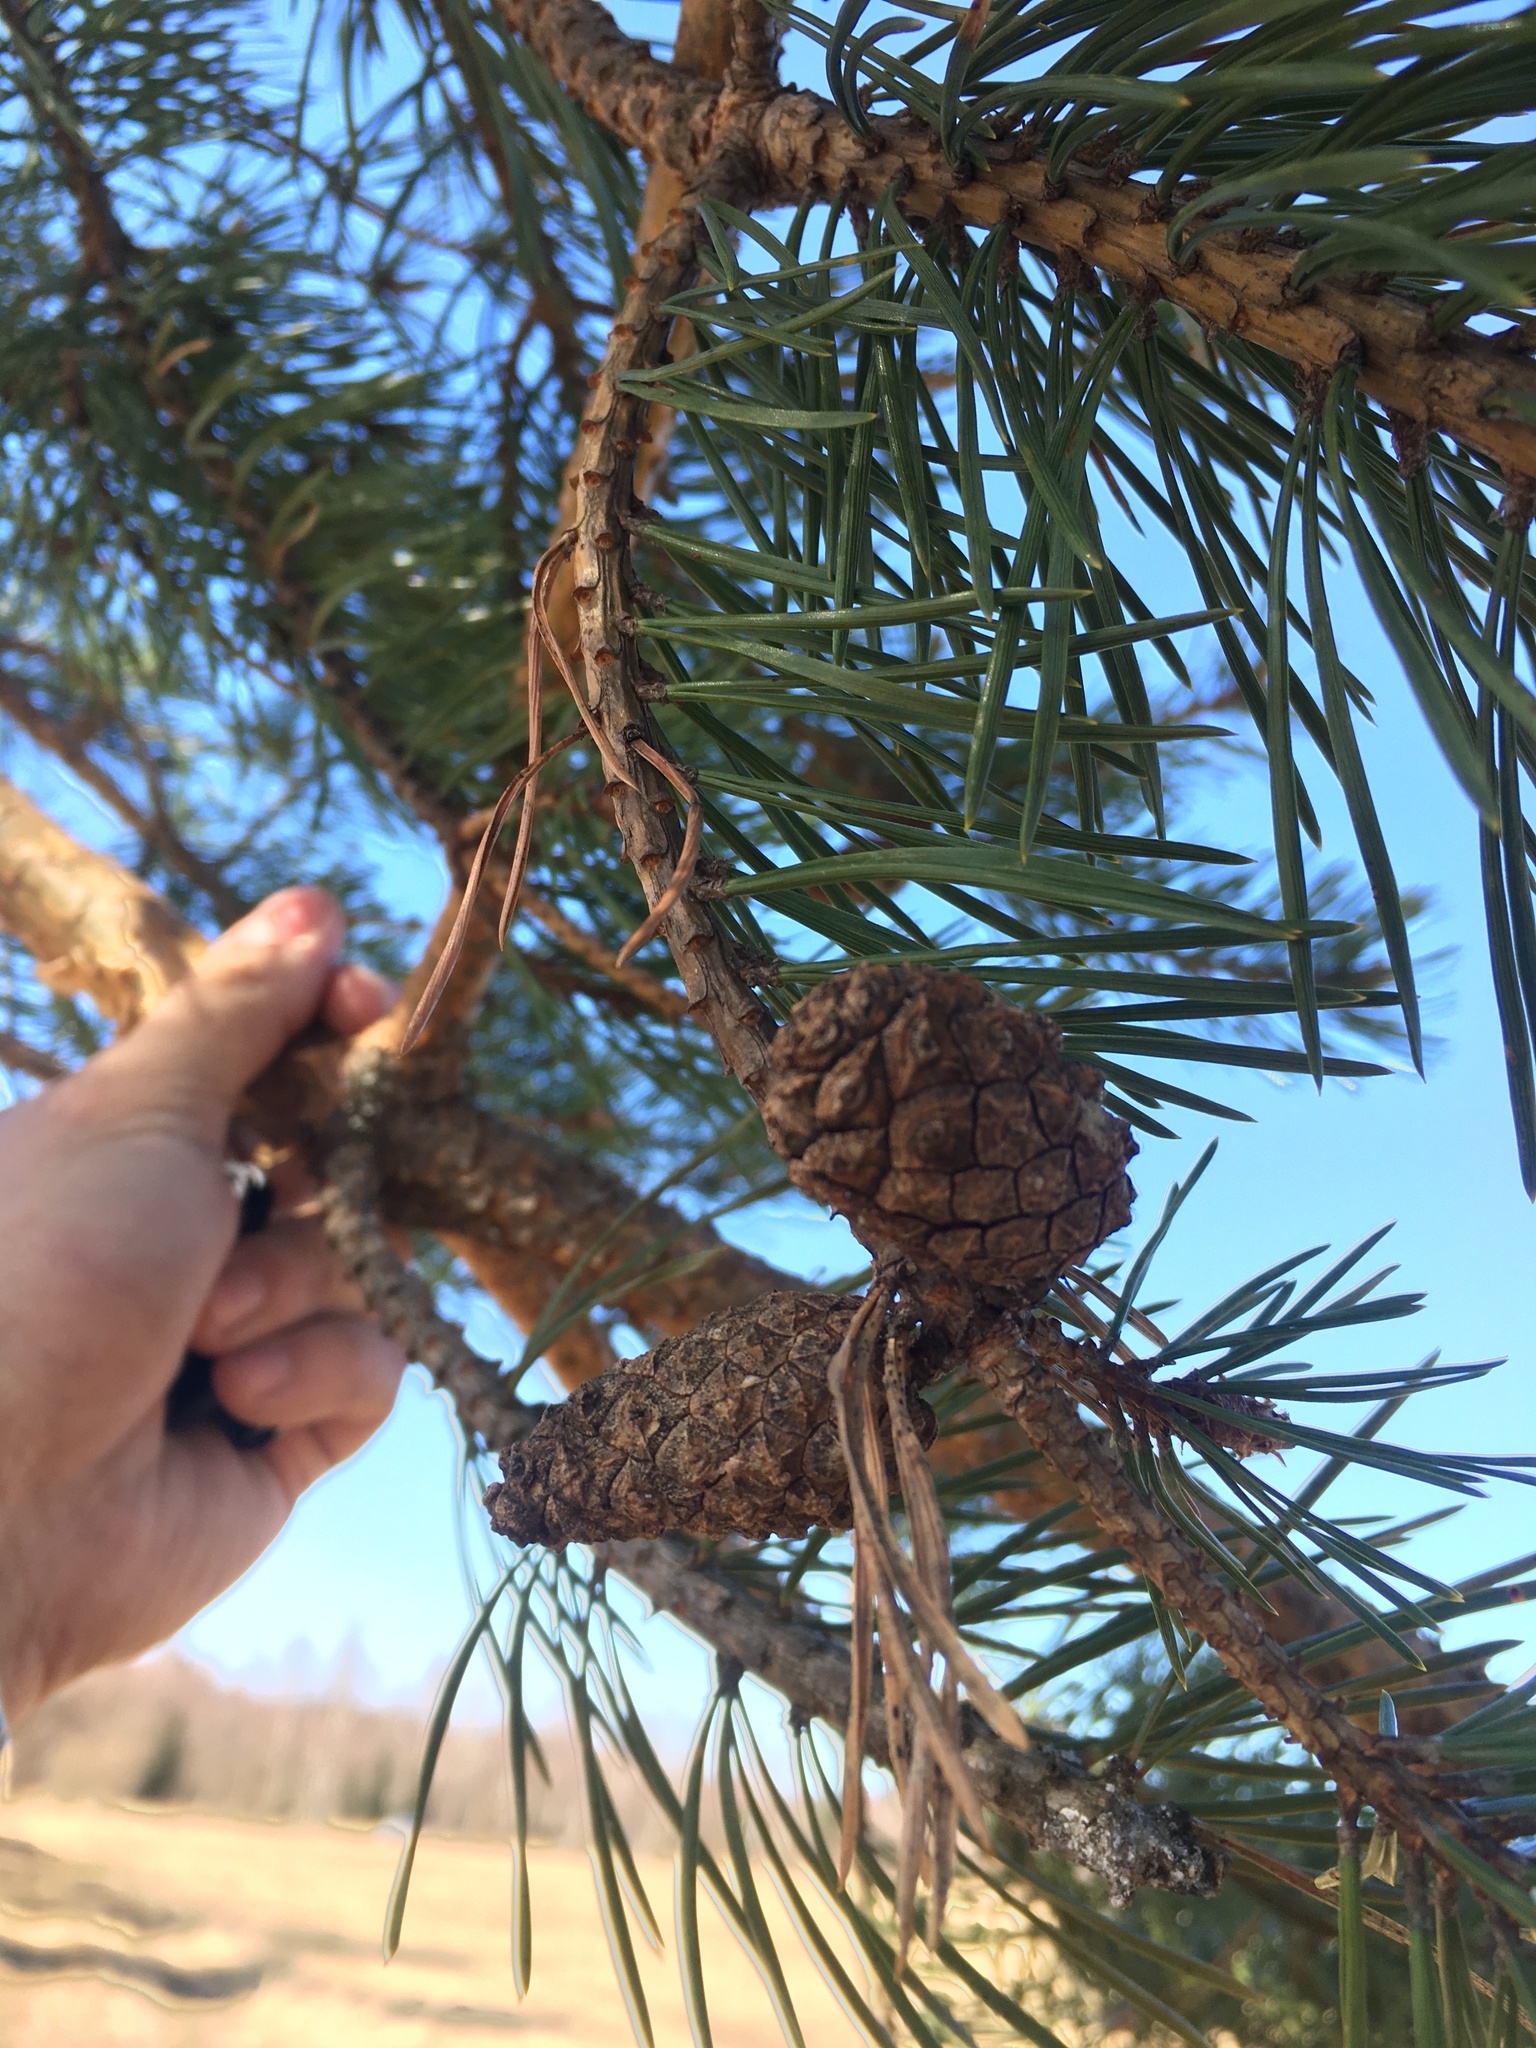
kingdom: Plantae
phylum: Tracheophyta
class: Pinopsida
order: Pinales
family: Pinaceae
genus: Pinus
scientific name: Pinus sylvestris
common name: Scots pine
